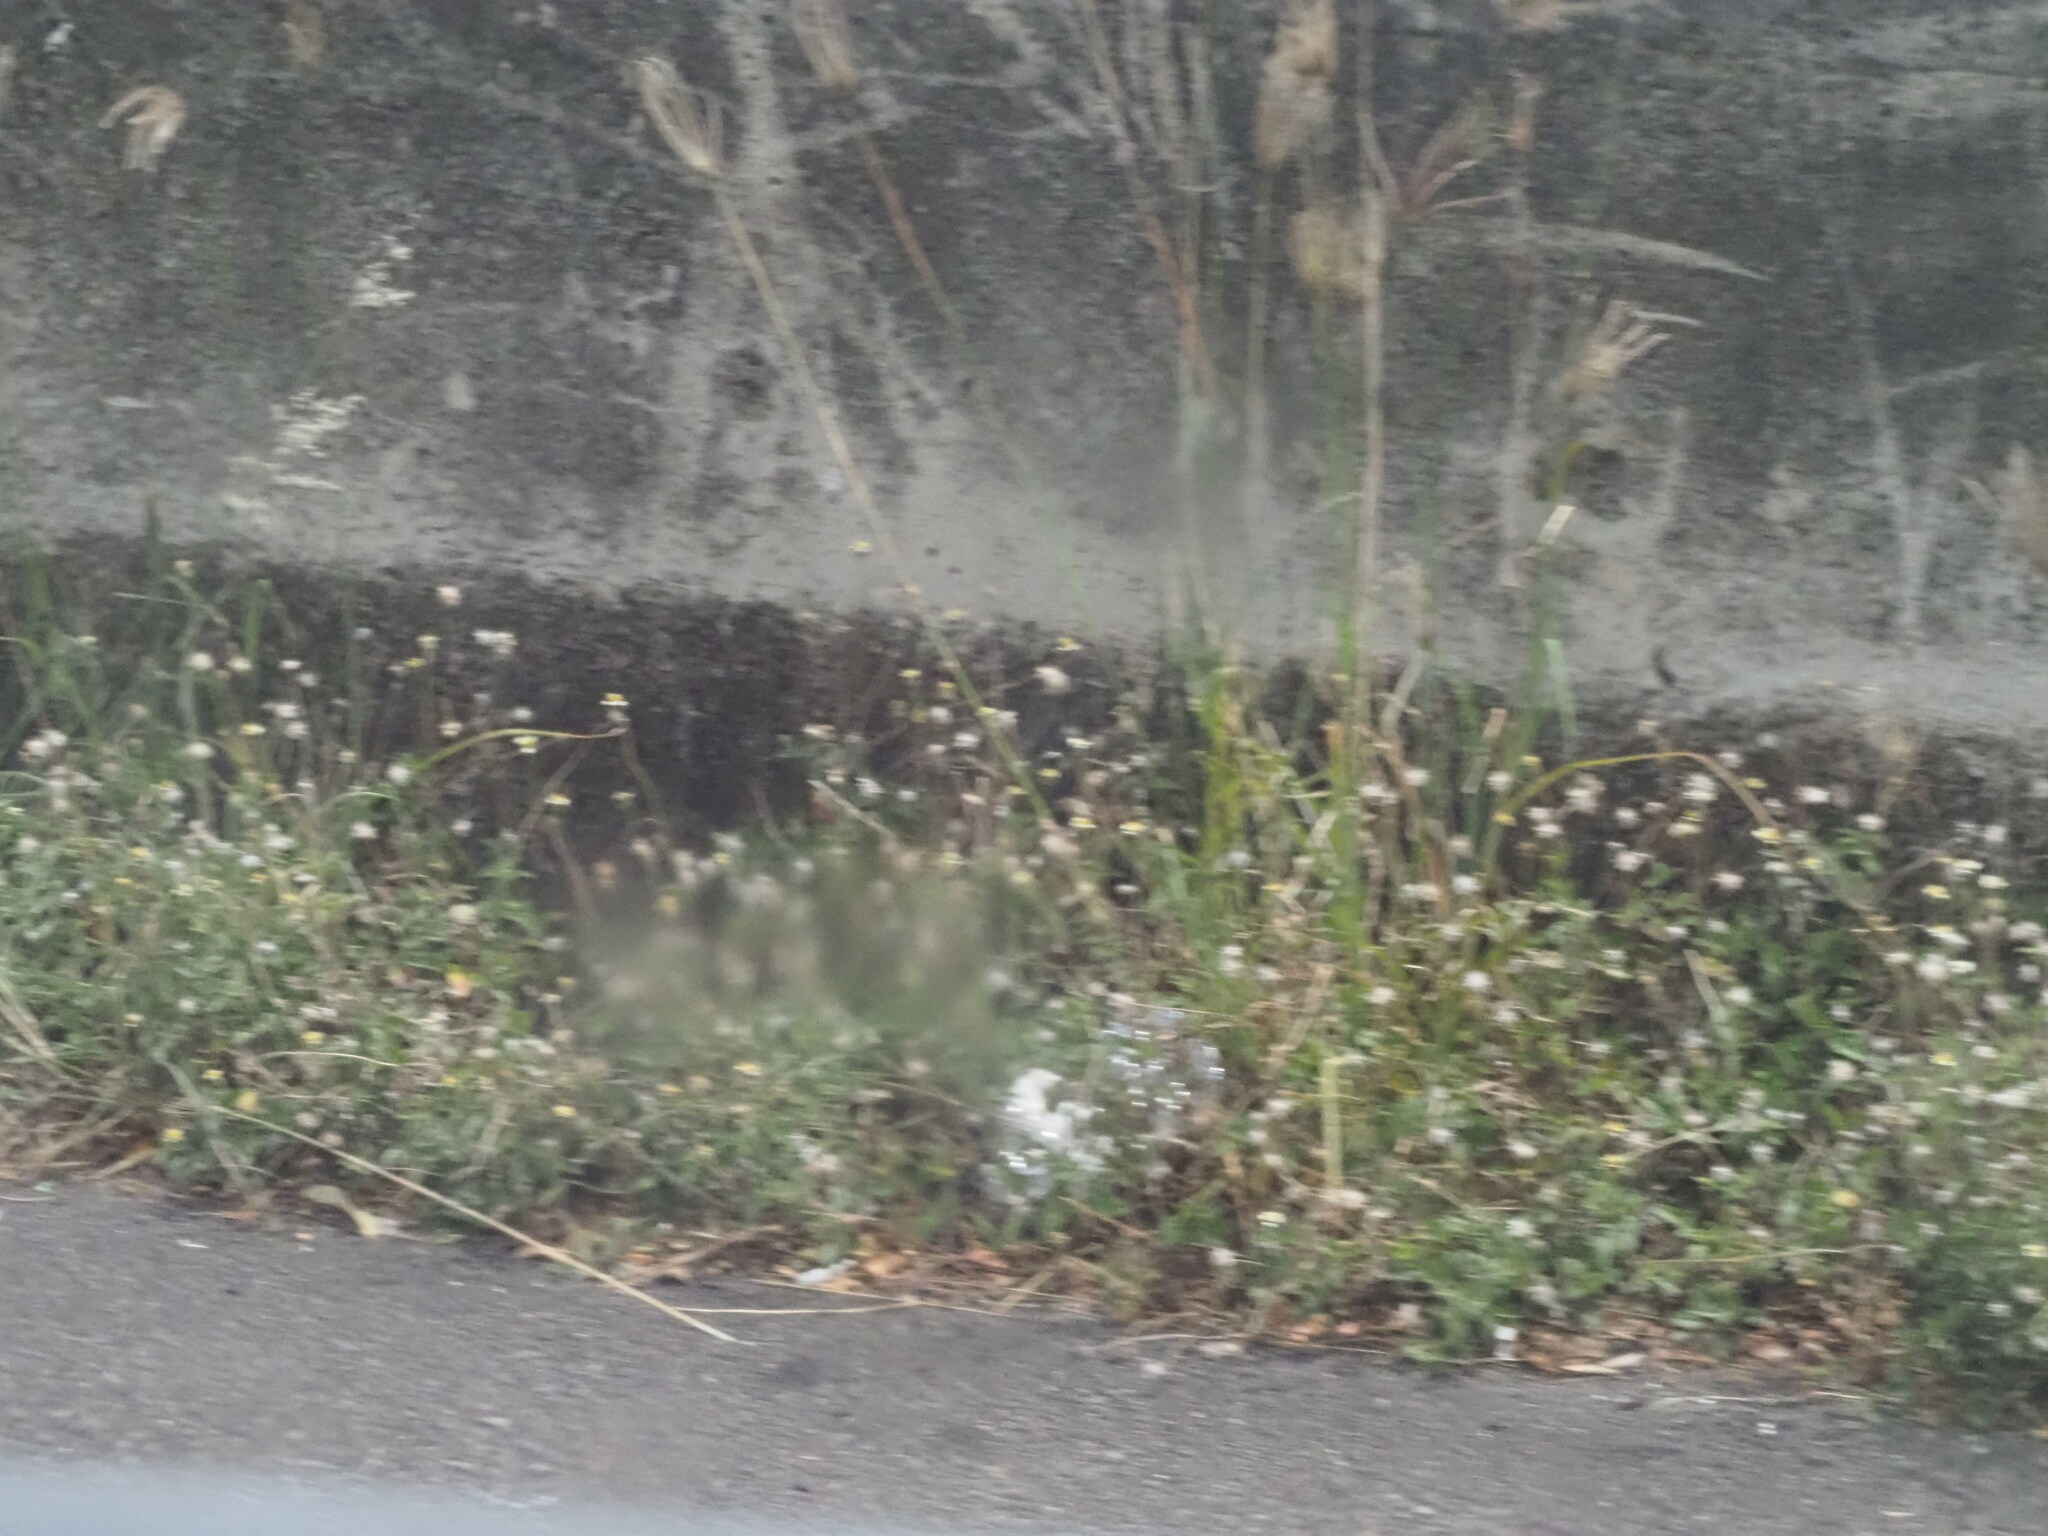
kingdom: Plantae
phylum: Tracheophyta
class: Magnoliopsida
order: Asterales
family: Asteraceae
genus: Tridax
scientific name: Tridax procumbens
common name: Coatbuttons
